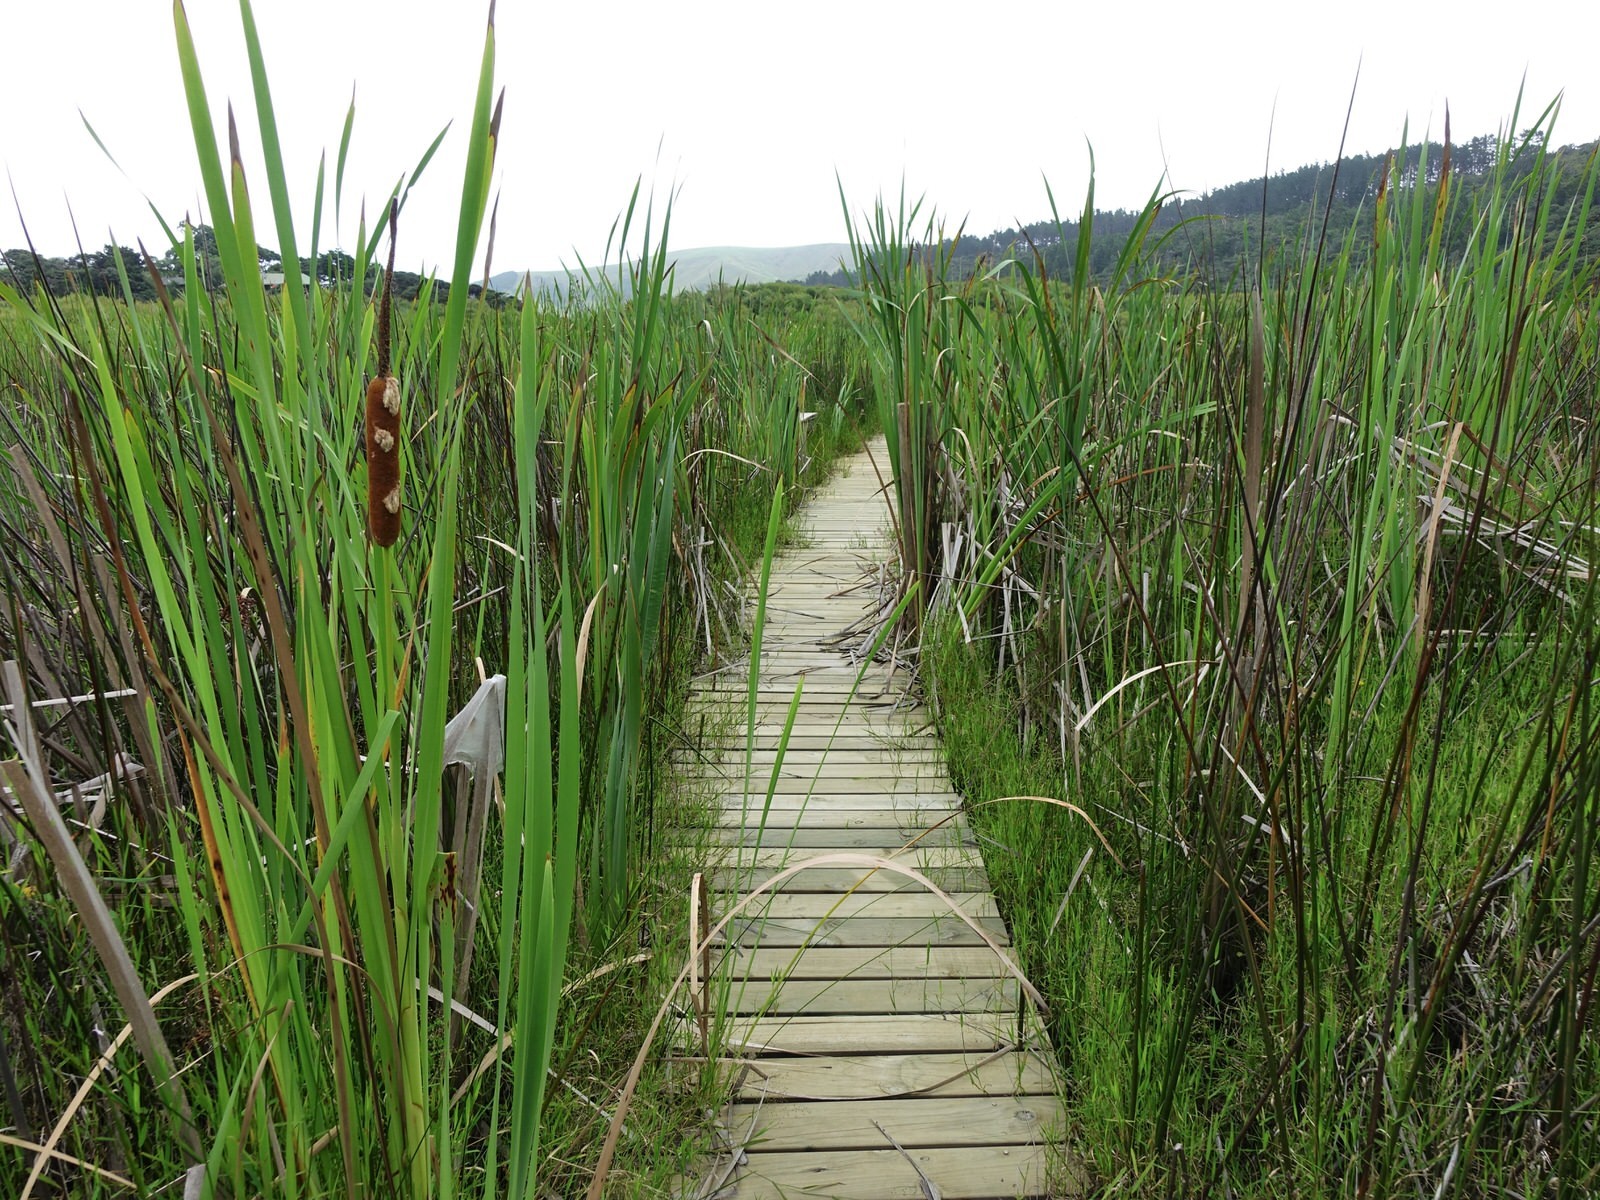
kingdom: Plantae
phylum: Tracheophyta
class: Liliopsida
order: Poales
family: Typhaceae
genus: Typha
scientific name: Typha orientalis
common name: Bullrush
